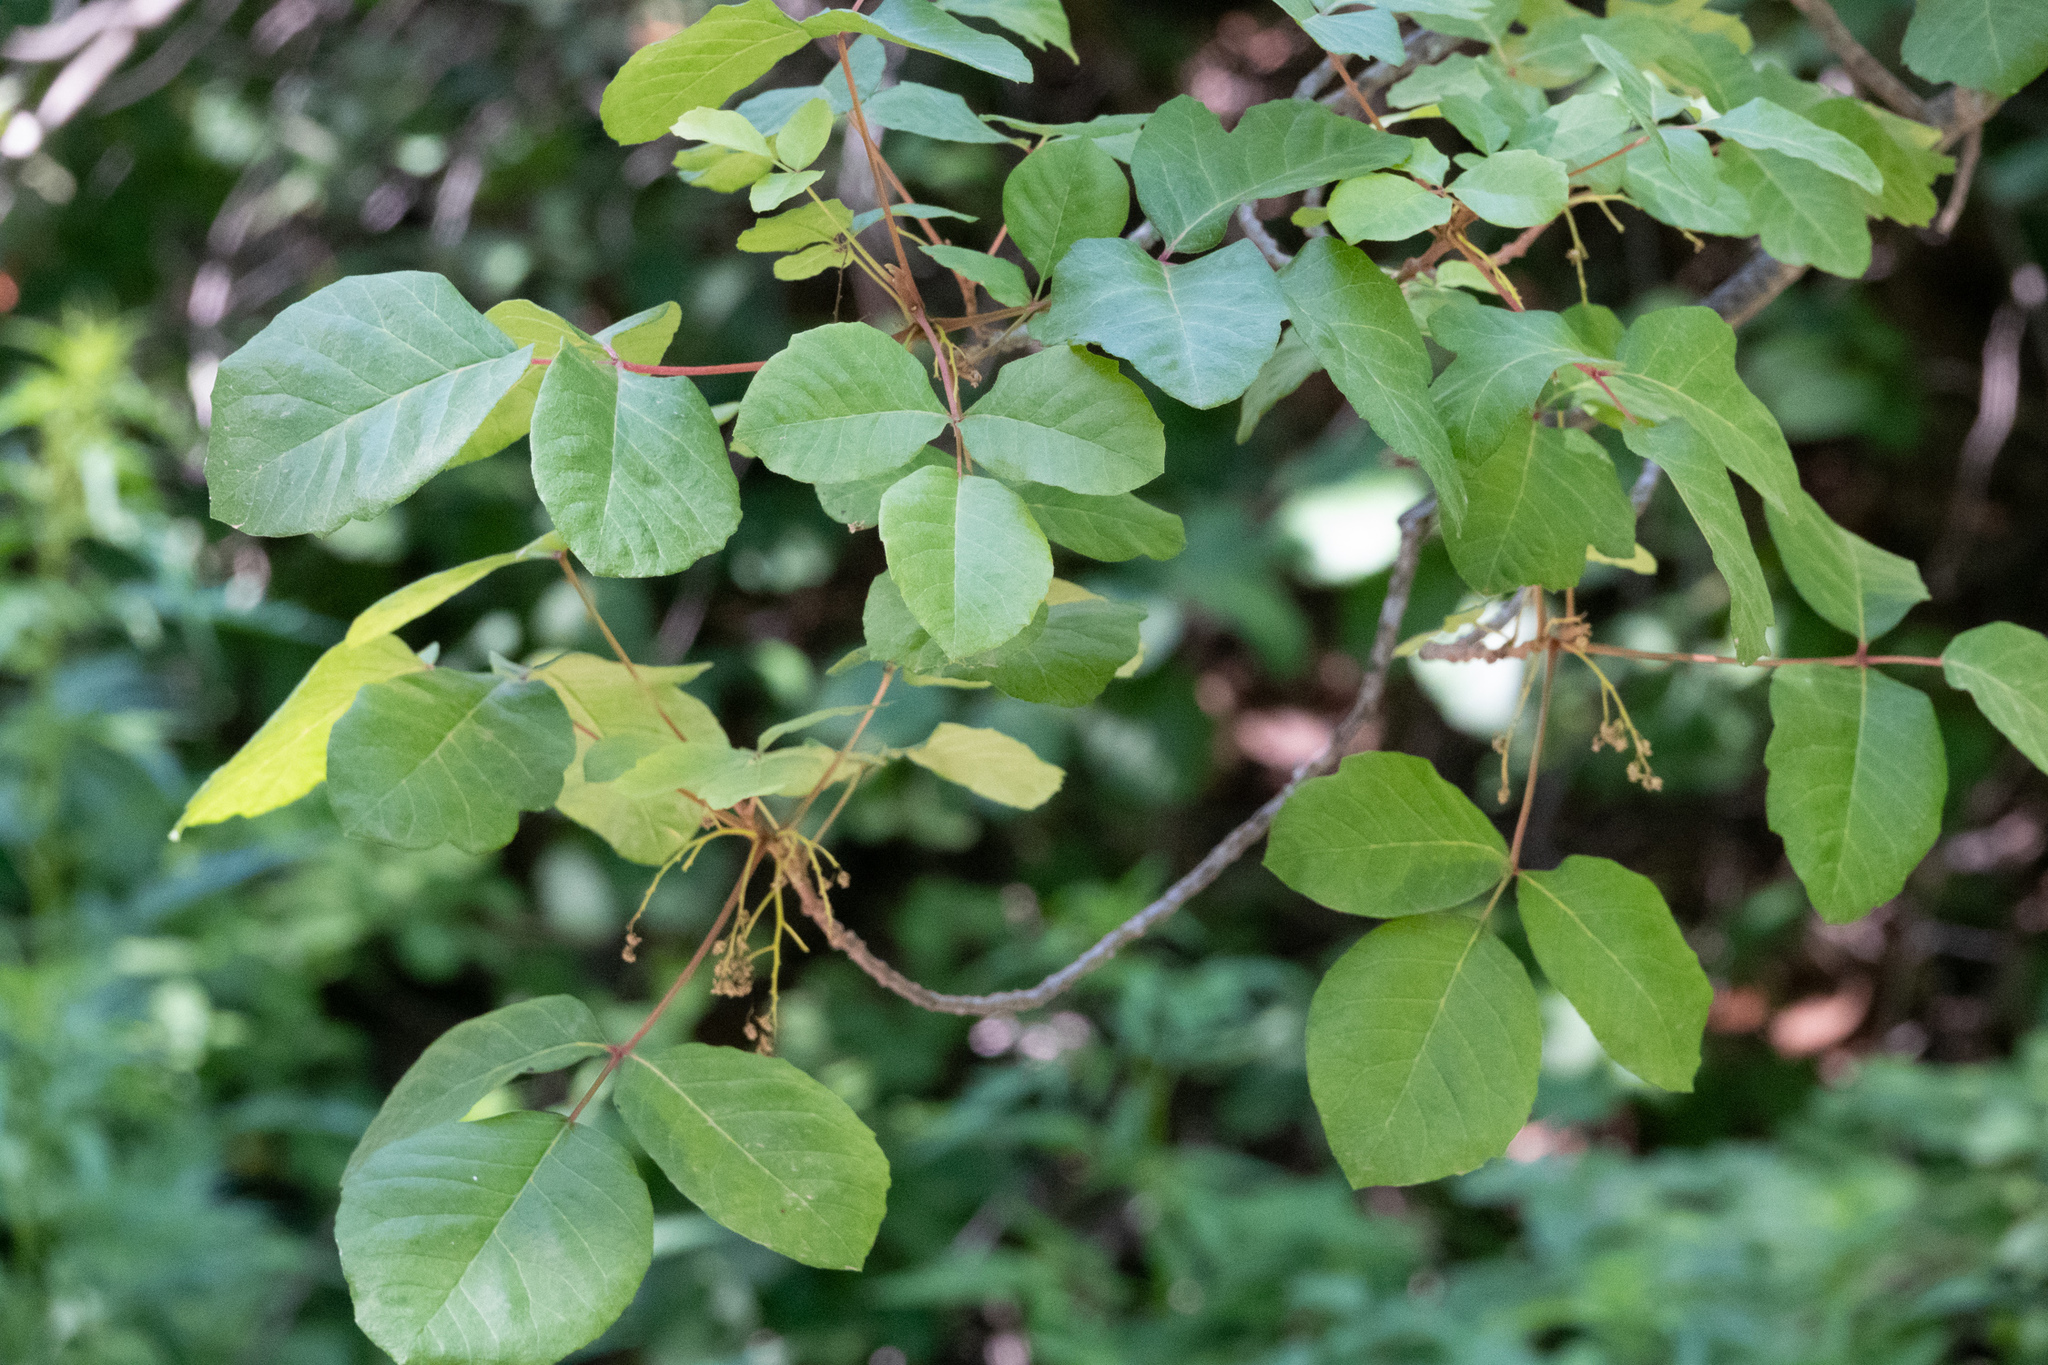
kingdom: Plantae
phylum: Tracheophyta
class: Magnoliopsida
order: Sapindales
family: Anacardiaceae
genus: Toxicodendron
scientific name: Toxicodendron diversilobum
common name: Pacific poison-oak
